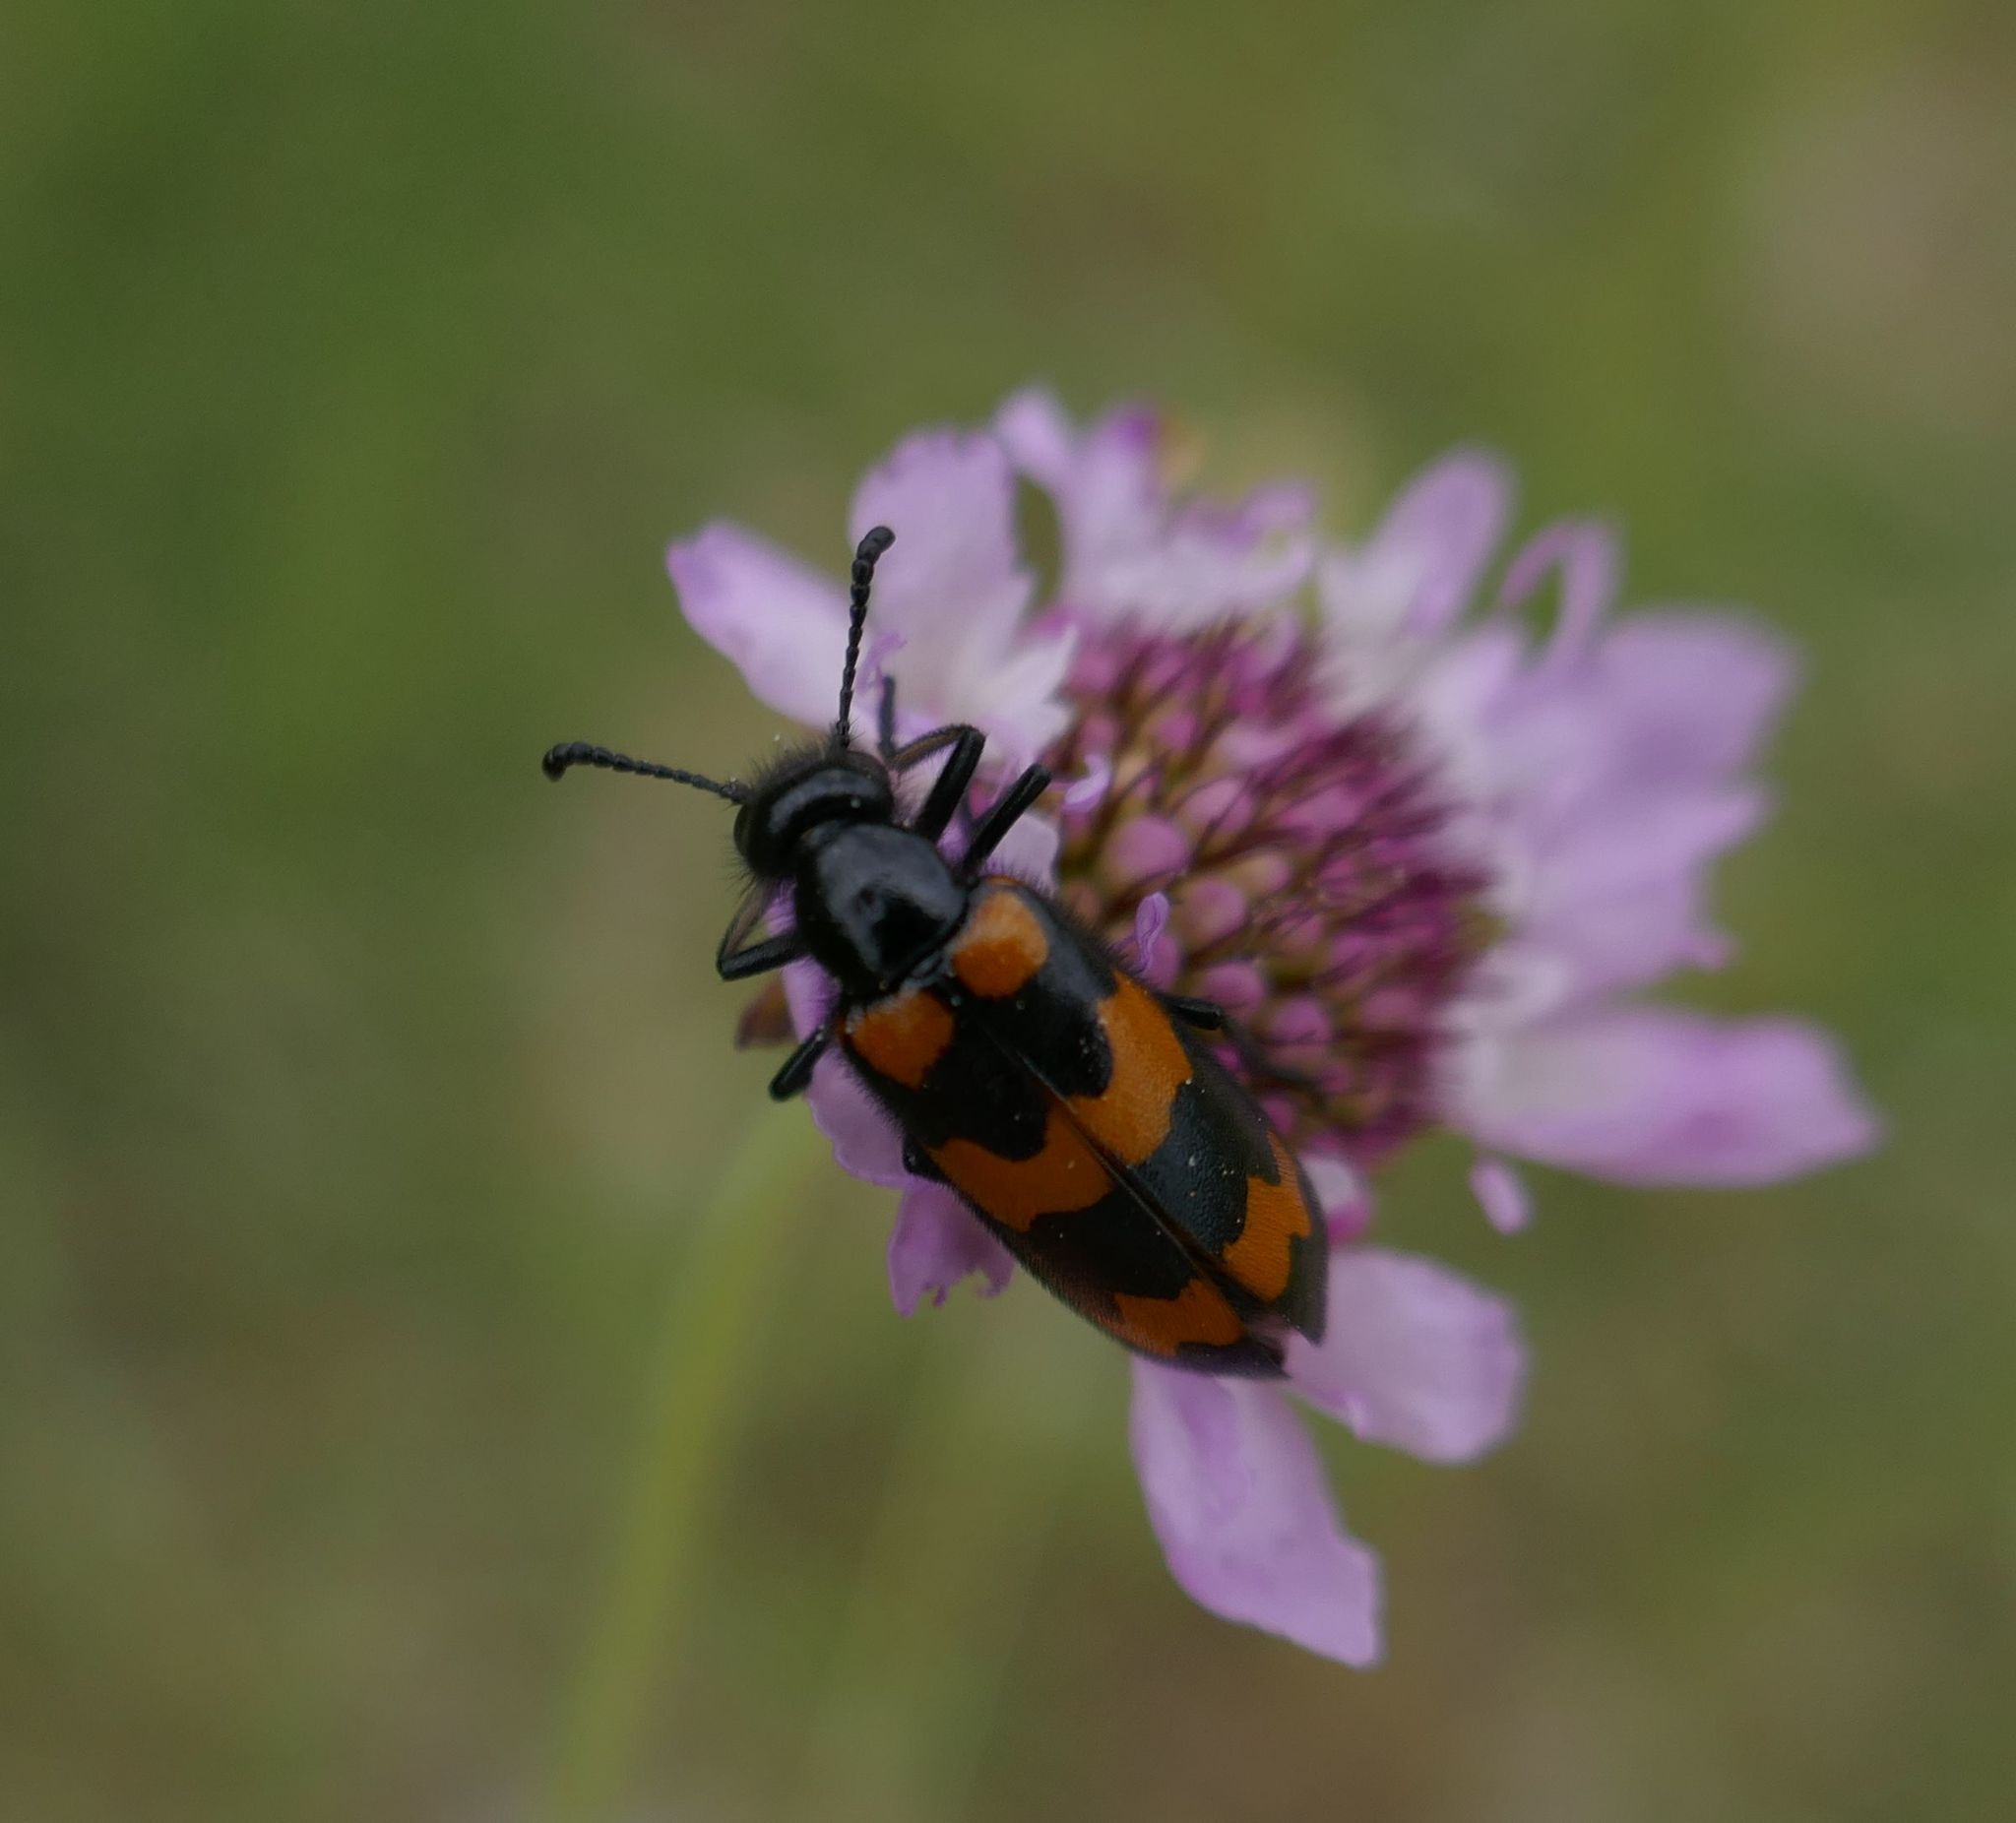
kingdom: Animalia
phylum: Arthropoda
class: Insecta
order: Coleoptera
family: Meloidae
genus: Mylabris
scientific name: Mylabris variabilis
